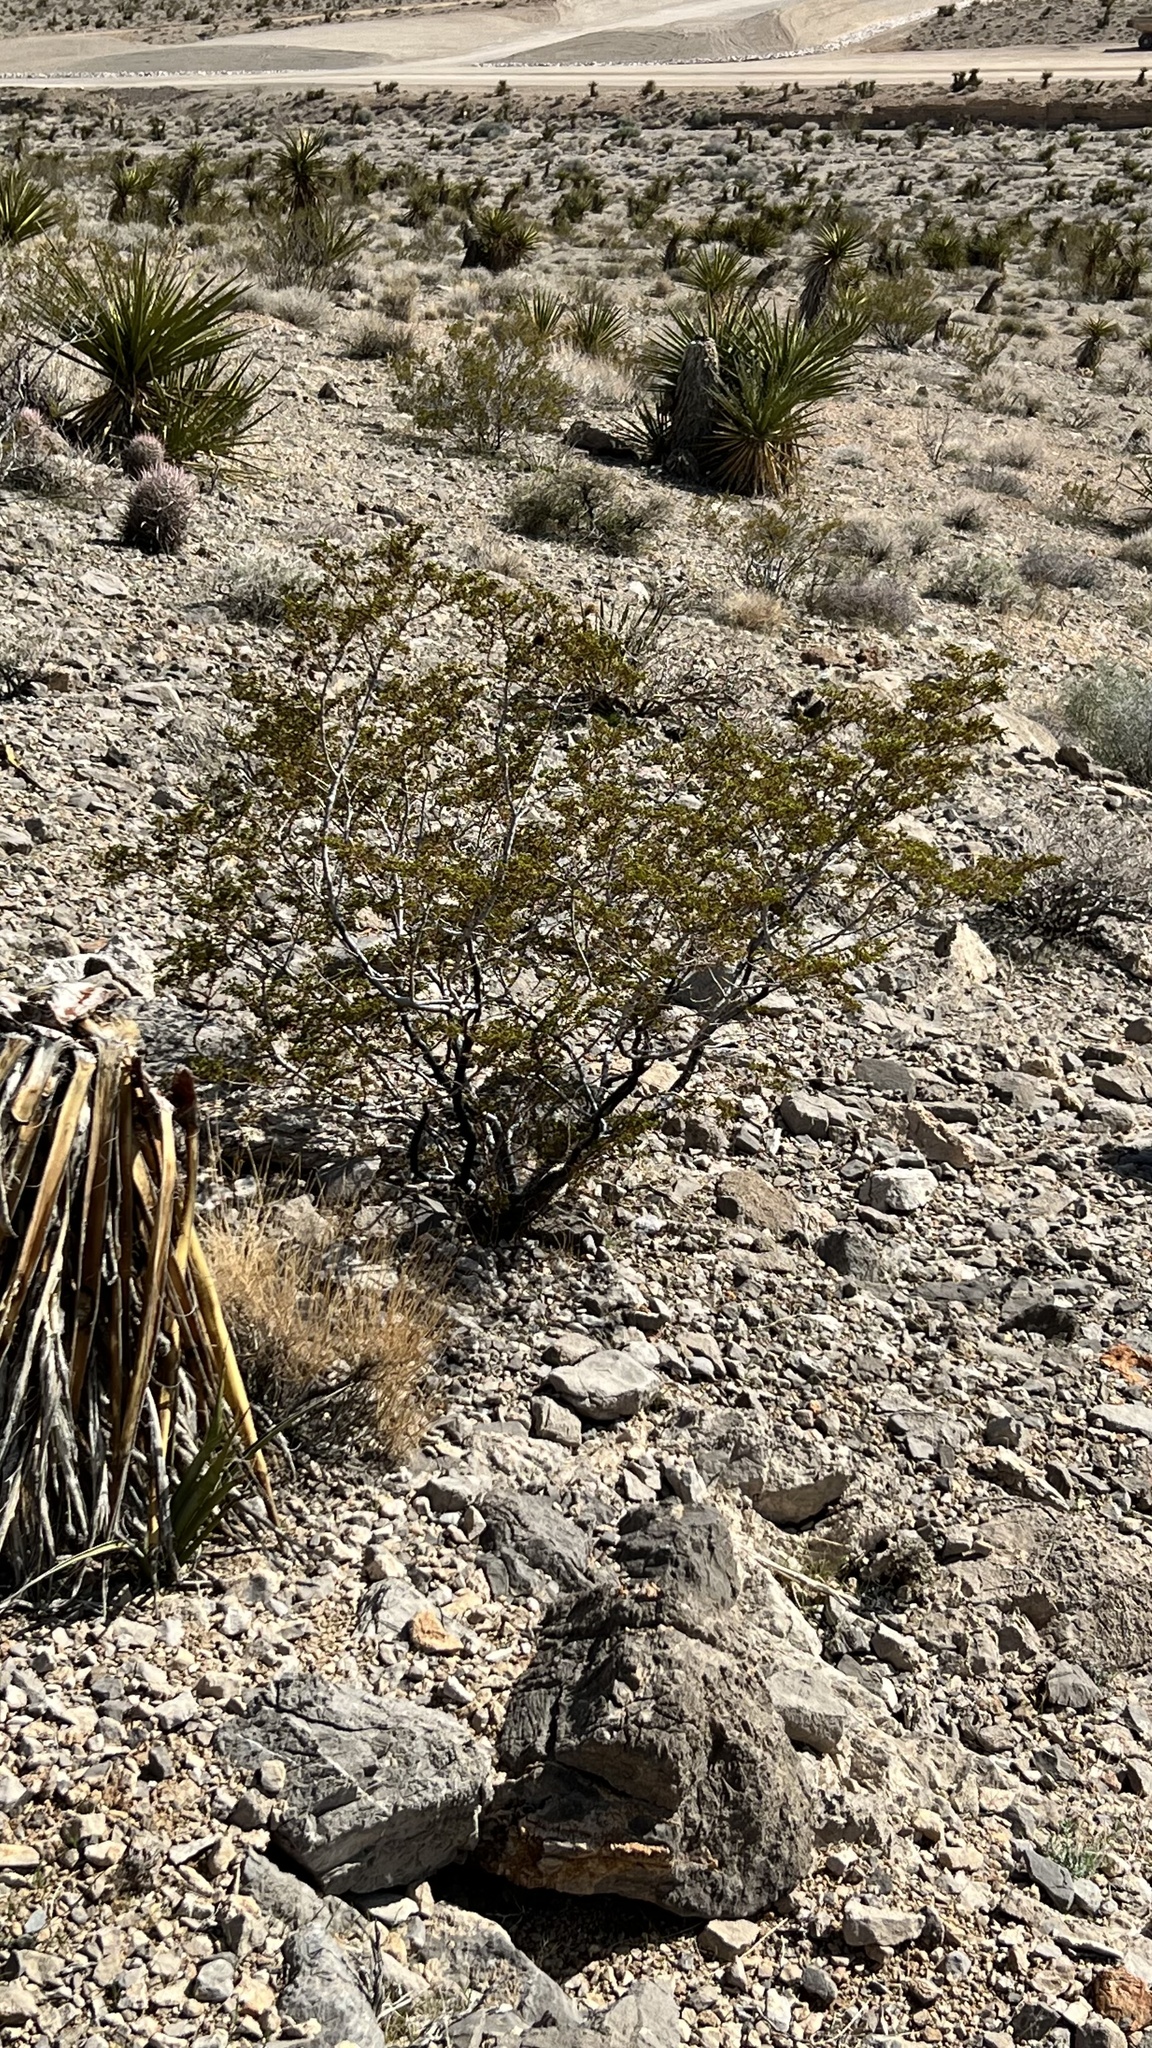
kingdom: Plantae
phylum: Tracheophyta
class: Magnoliopsida
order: Zygophyllales
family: Zygophyllaceae
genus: Larrea
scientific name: Larrea tridentata
